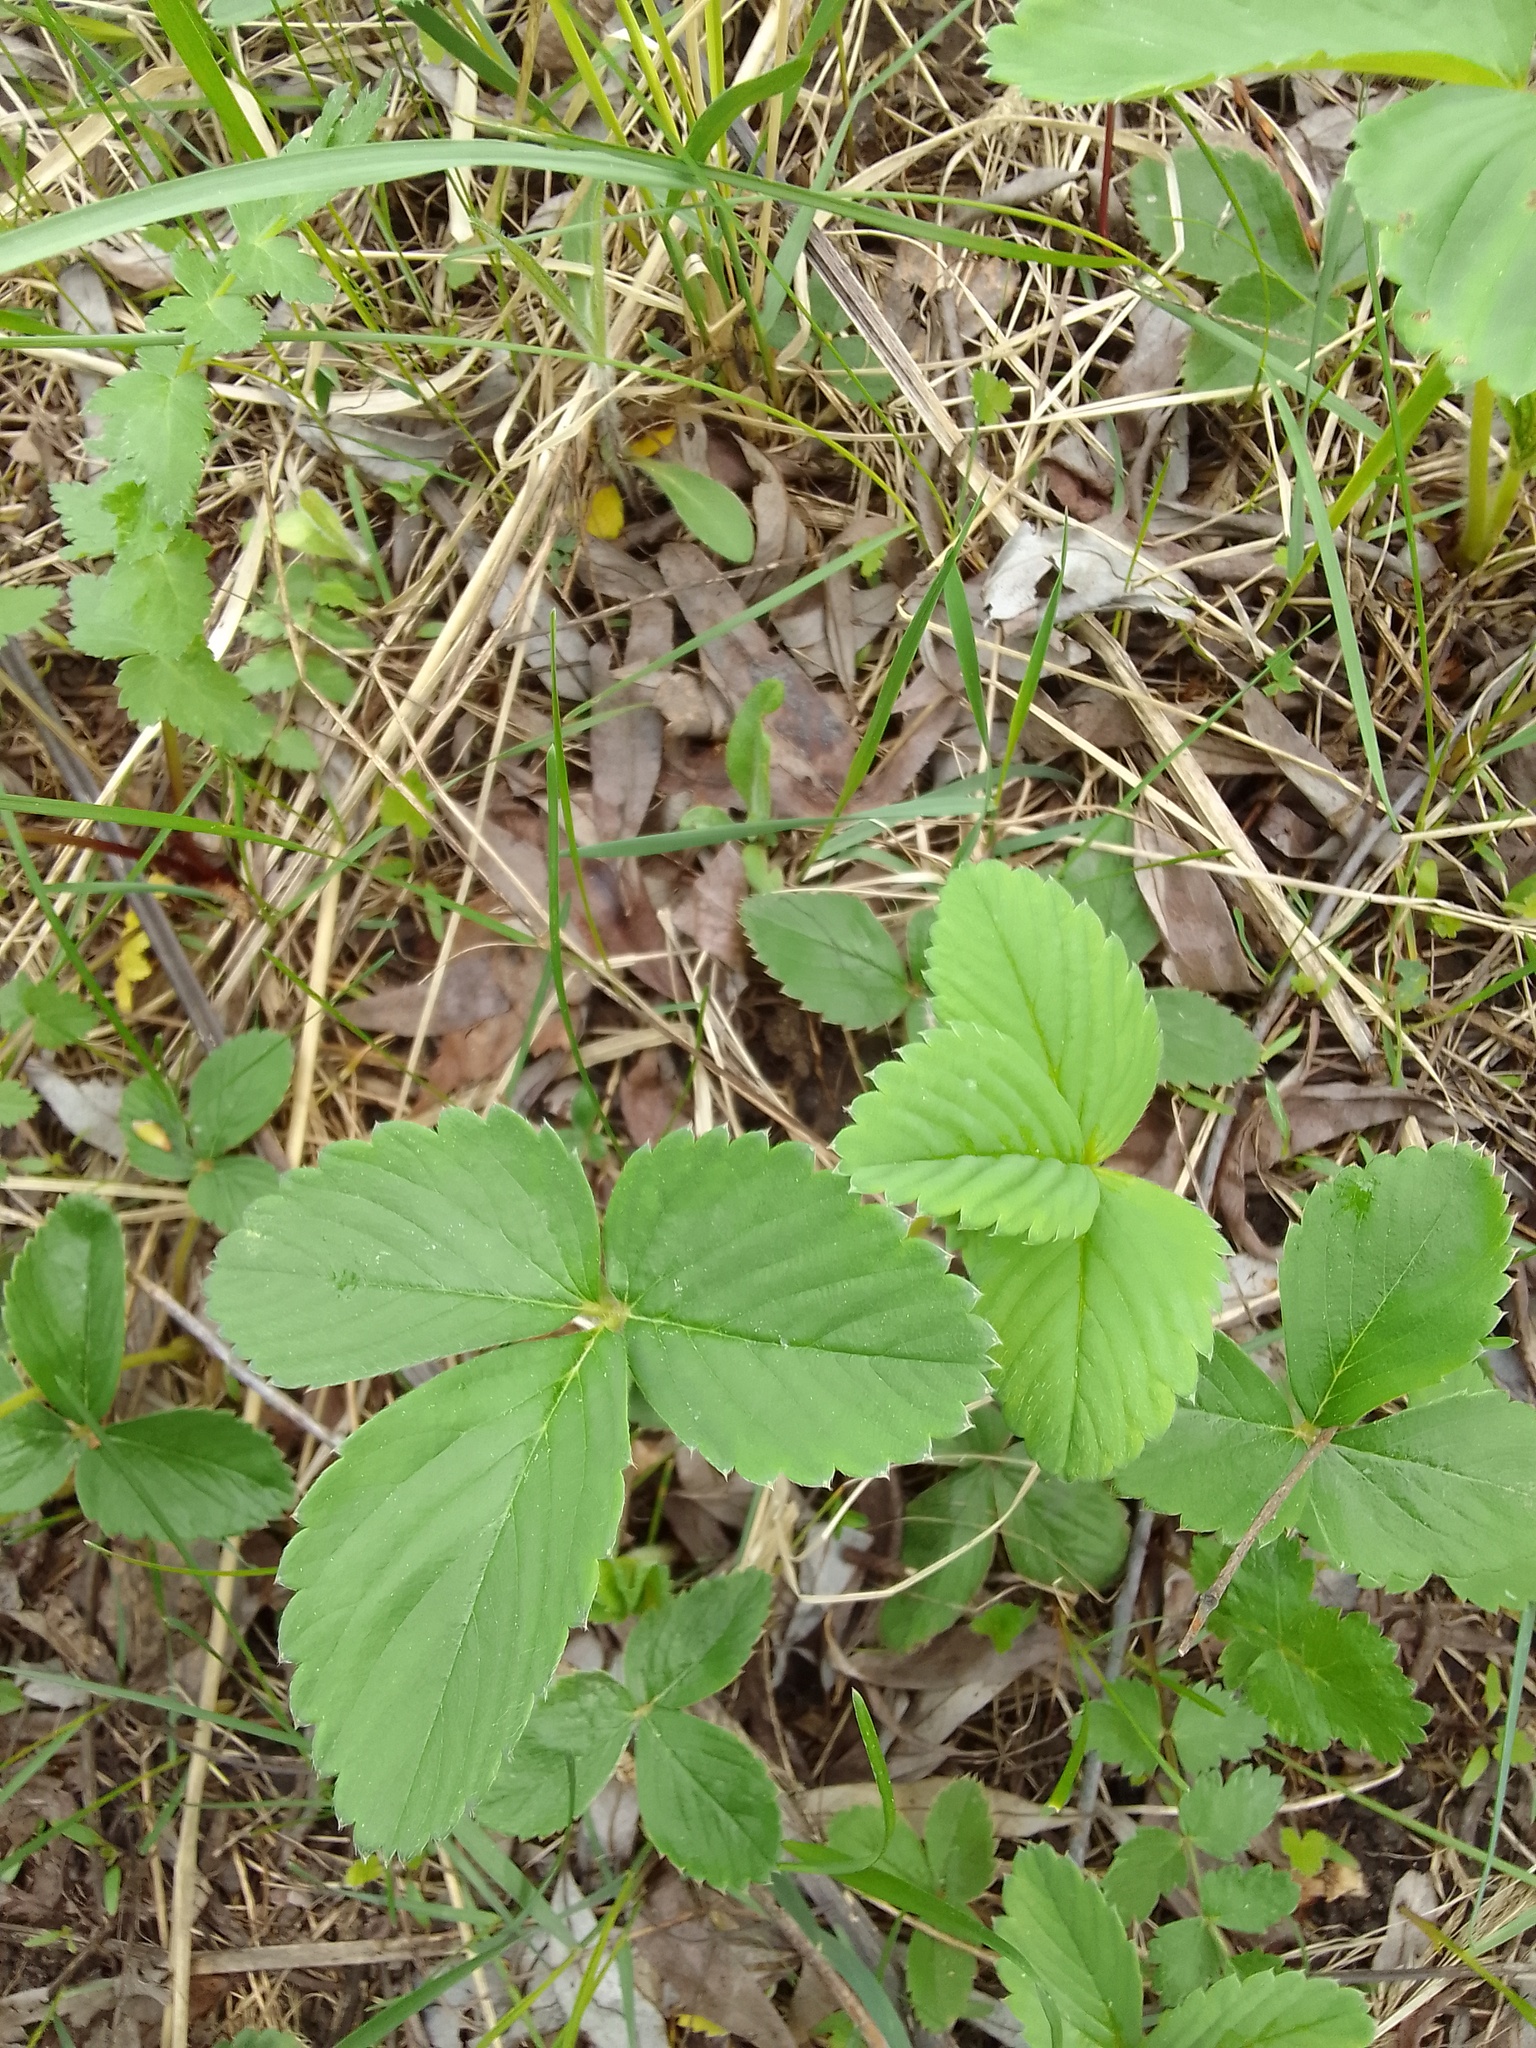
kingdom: Plantae
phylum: Tracheophyta
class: Magnoliopsida
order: Rosales
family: Rosaceae
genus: Fragaria
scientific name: Fragaria ananassa
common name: Garden strawberry
